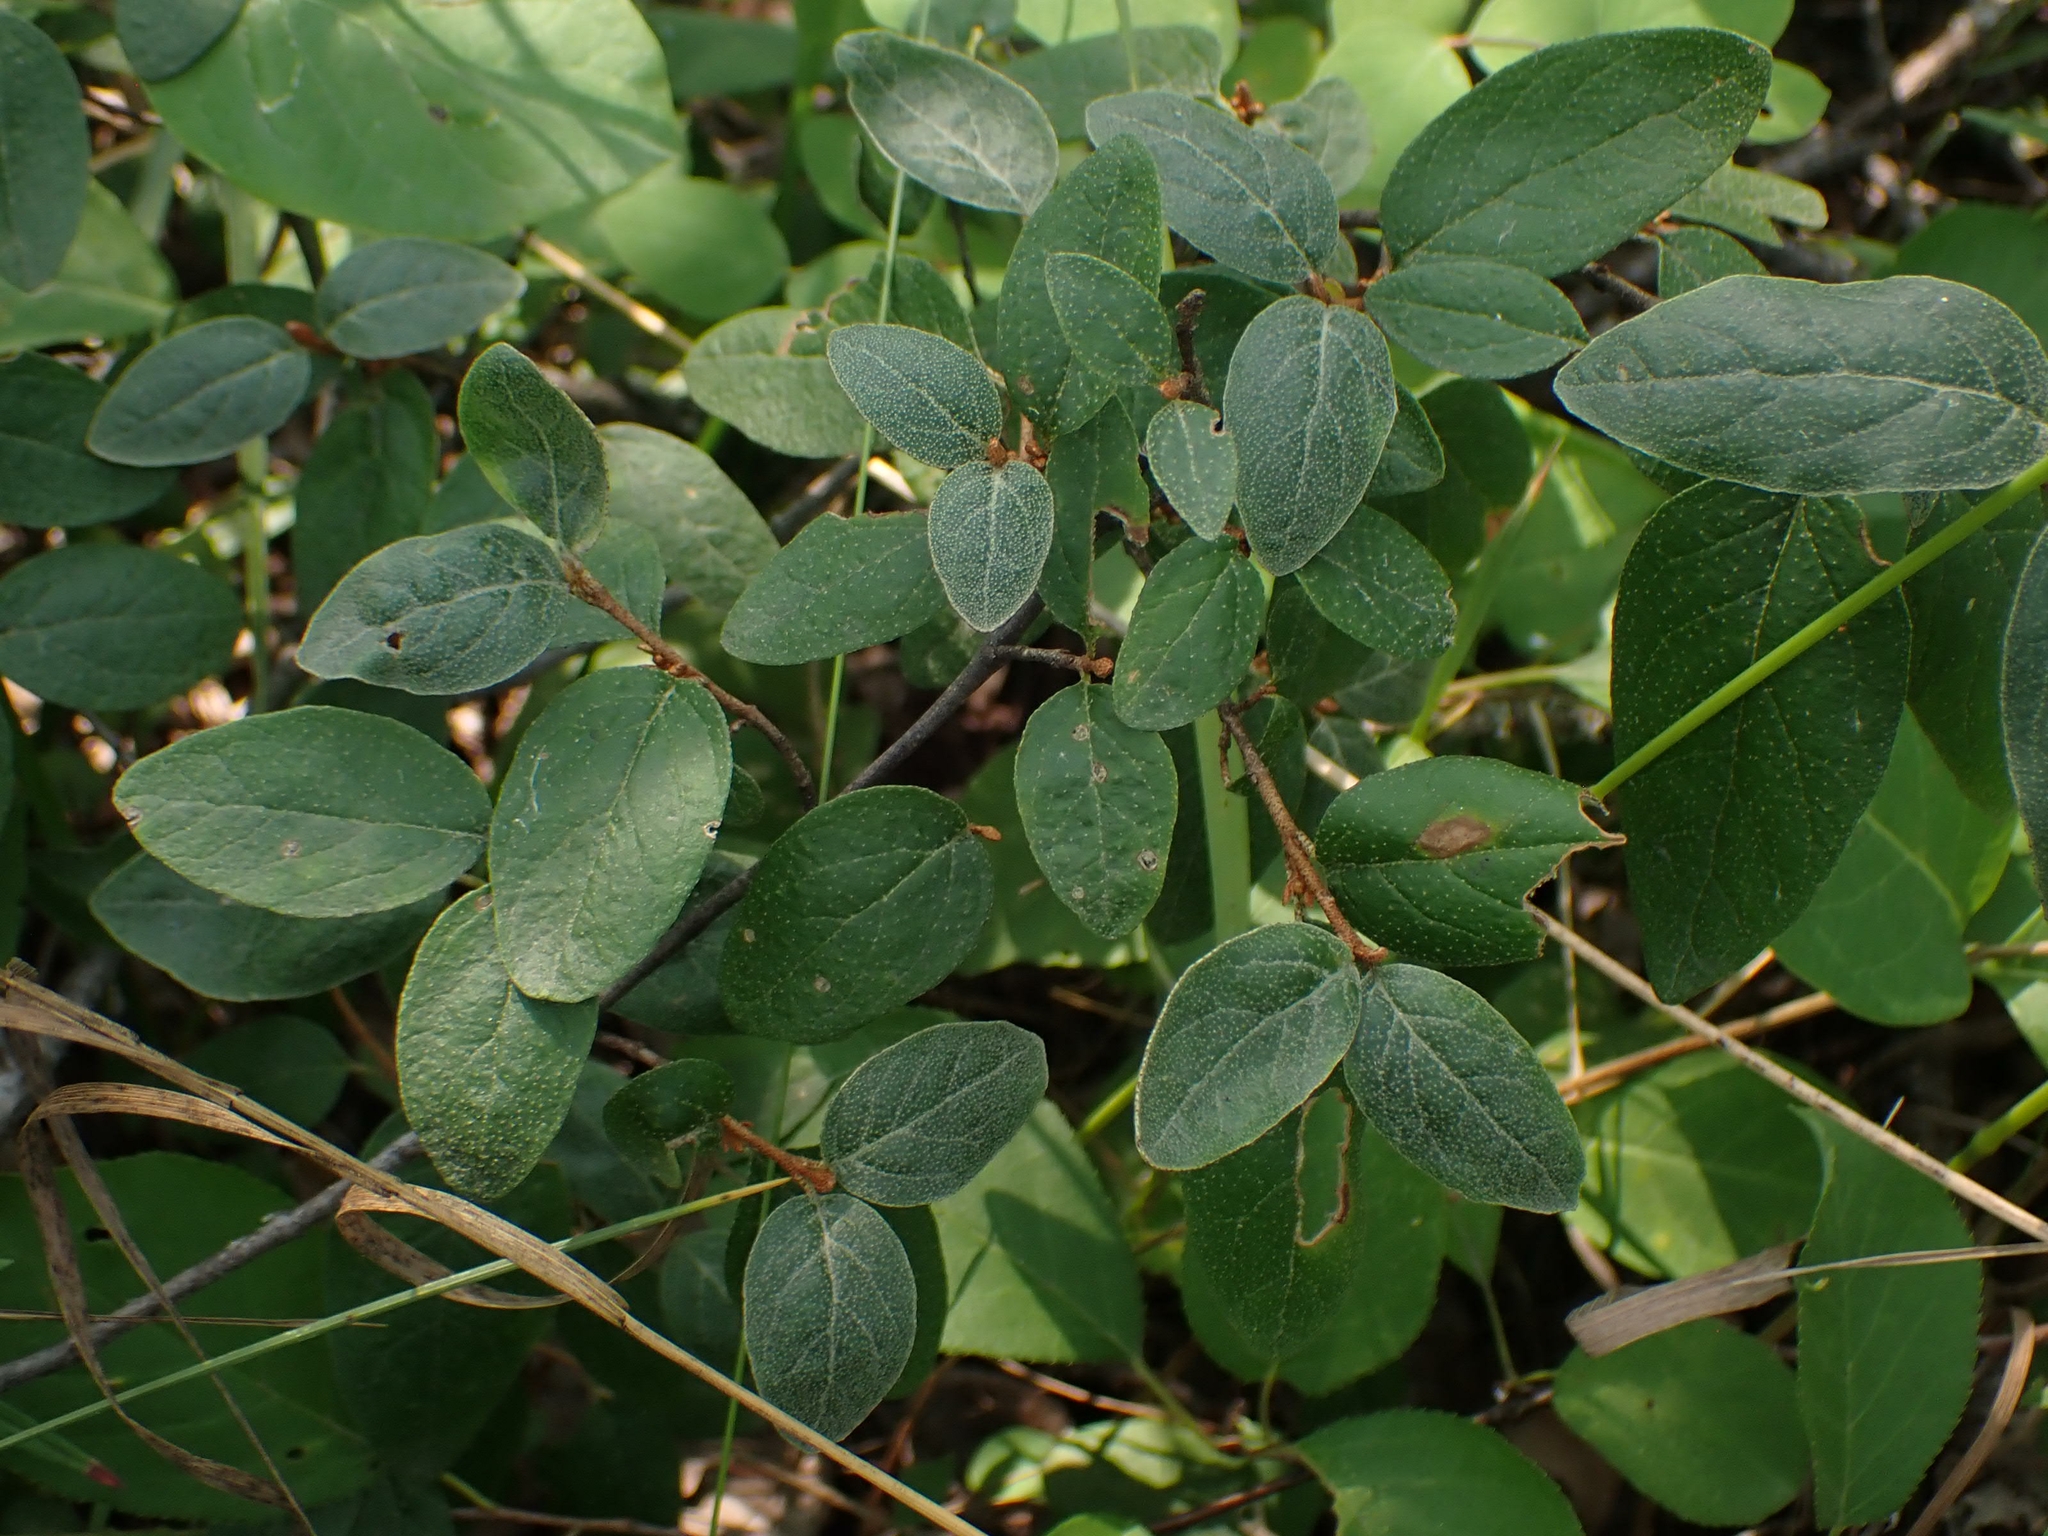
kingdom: Plantae
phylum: Tracheophyta
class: Magnoliopsida
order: Rosales
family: Elaeagnaceae
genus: Shepherdia
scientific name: Shepherdia canadensis
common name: Soapberry
